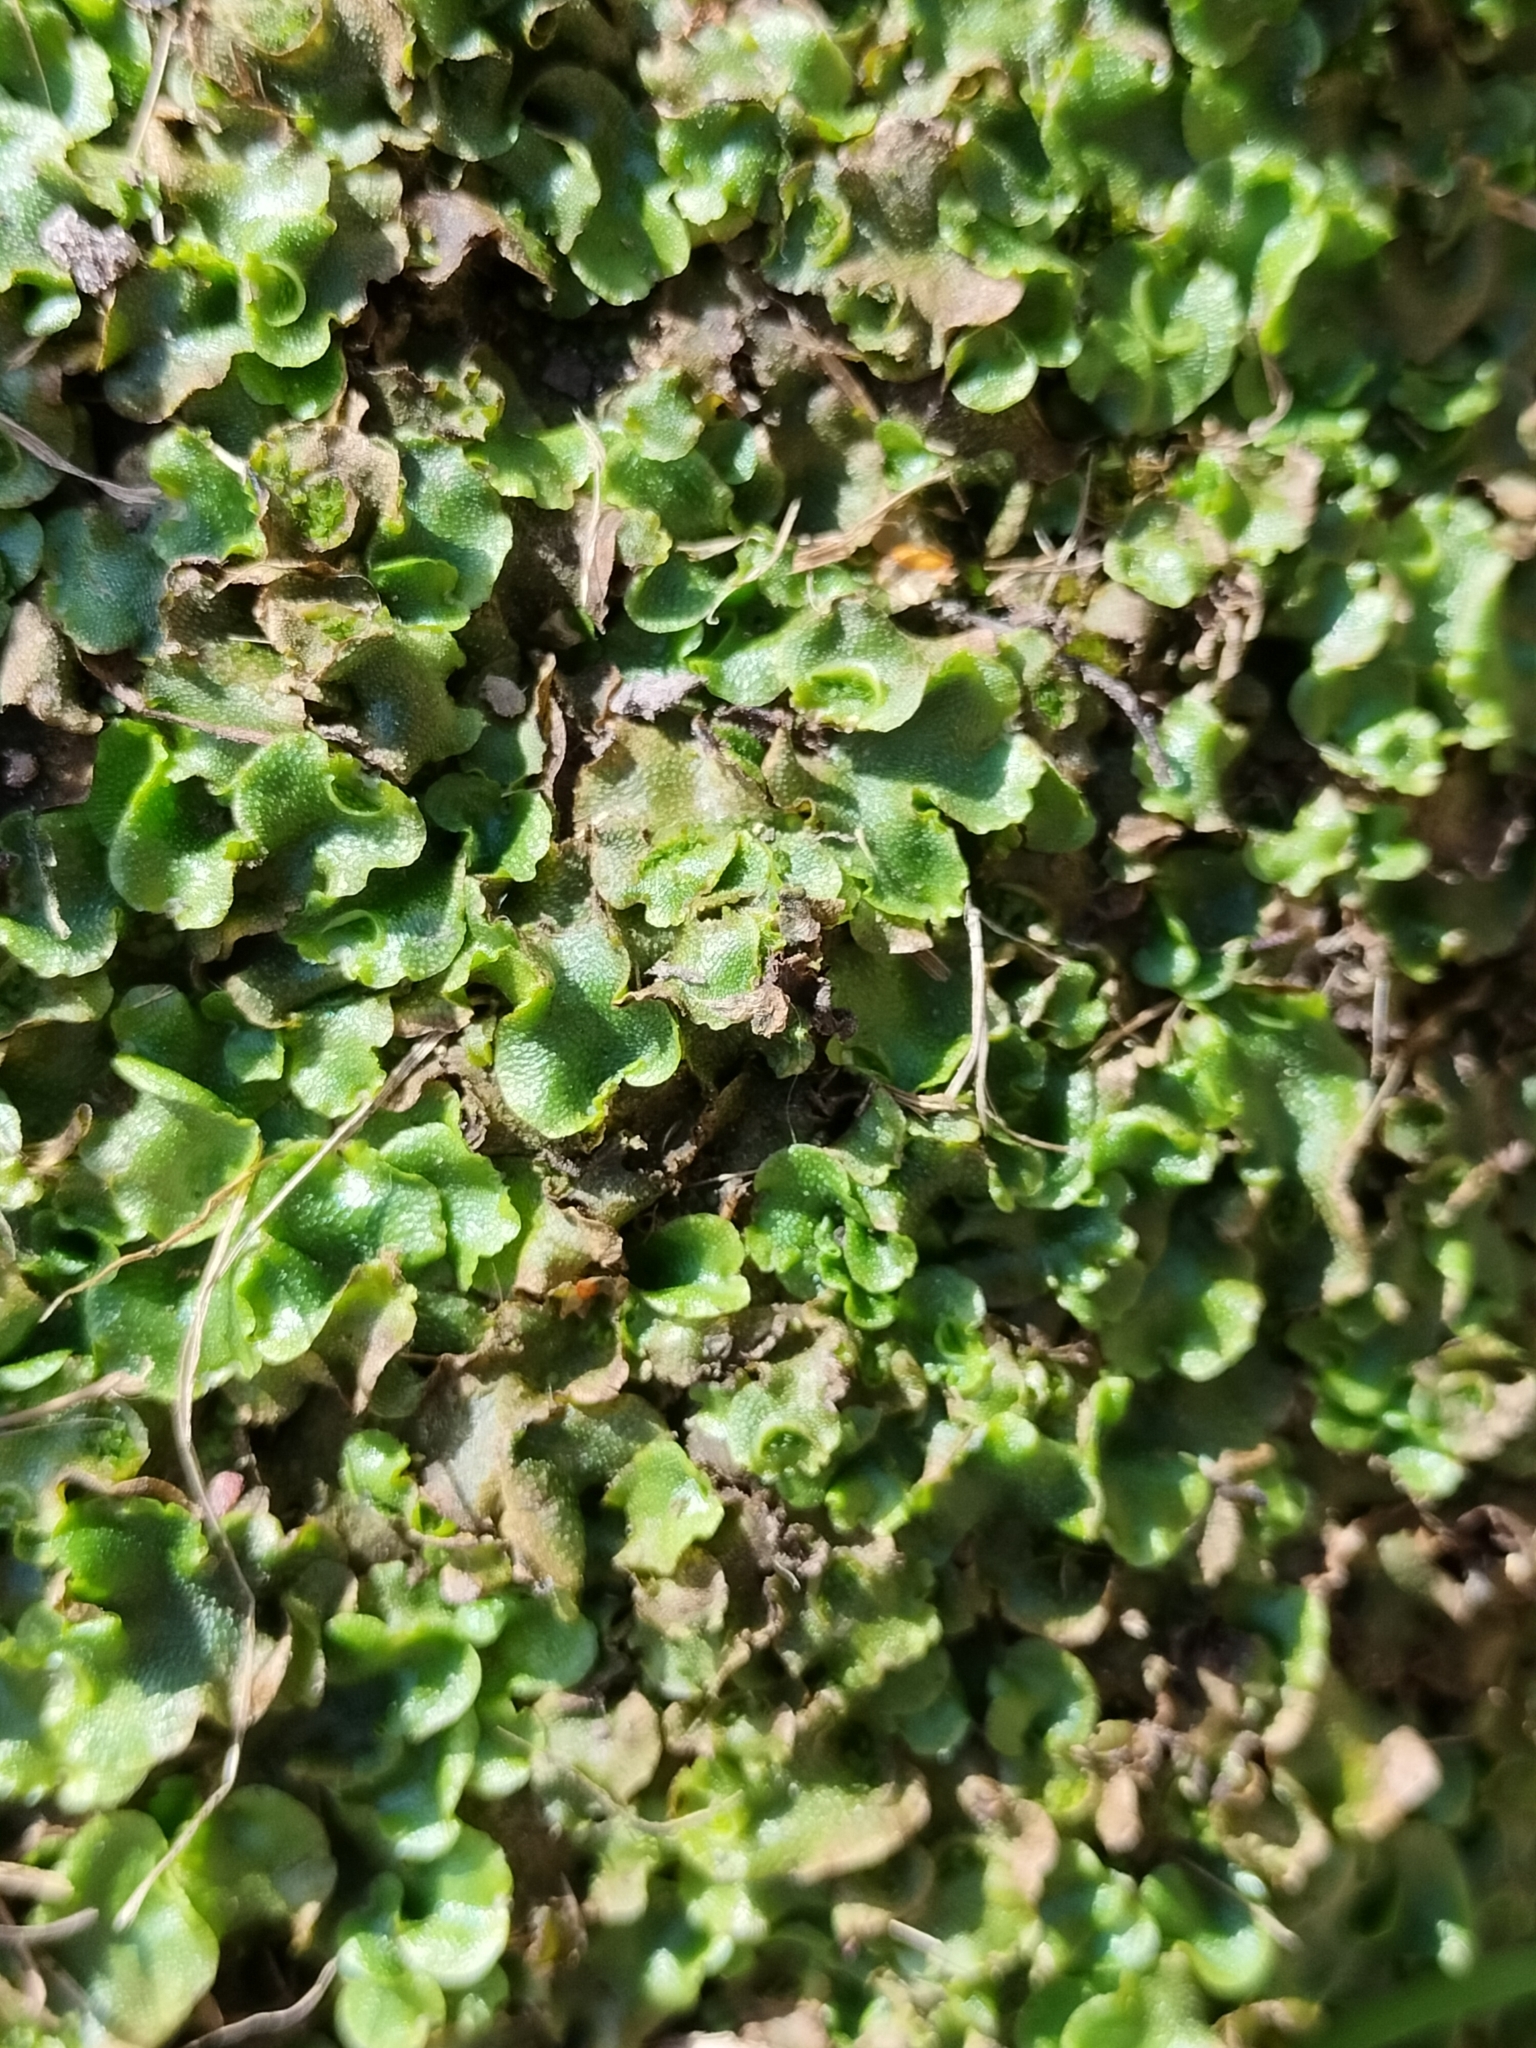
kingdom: Plantae
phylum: Marchantiophyta
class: Marchantiopsida
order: Lunulariales
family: Lunulariaceae
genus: Lunularia
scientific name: Lunularia cruciata
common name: Crescent-cup liverwort
